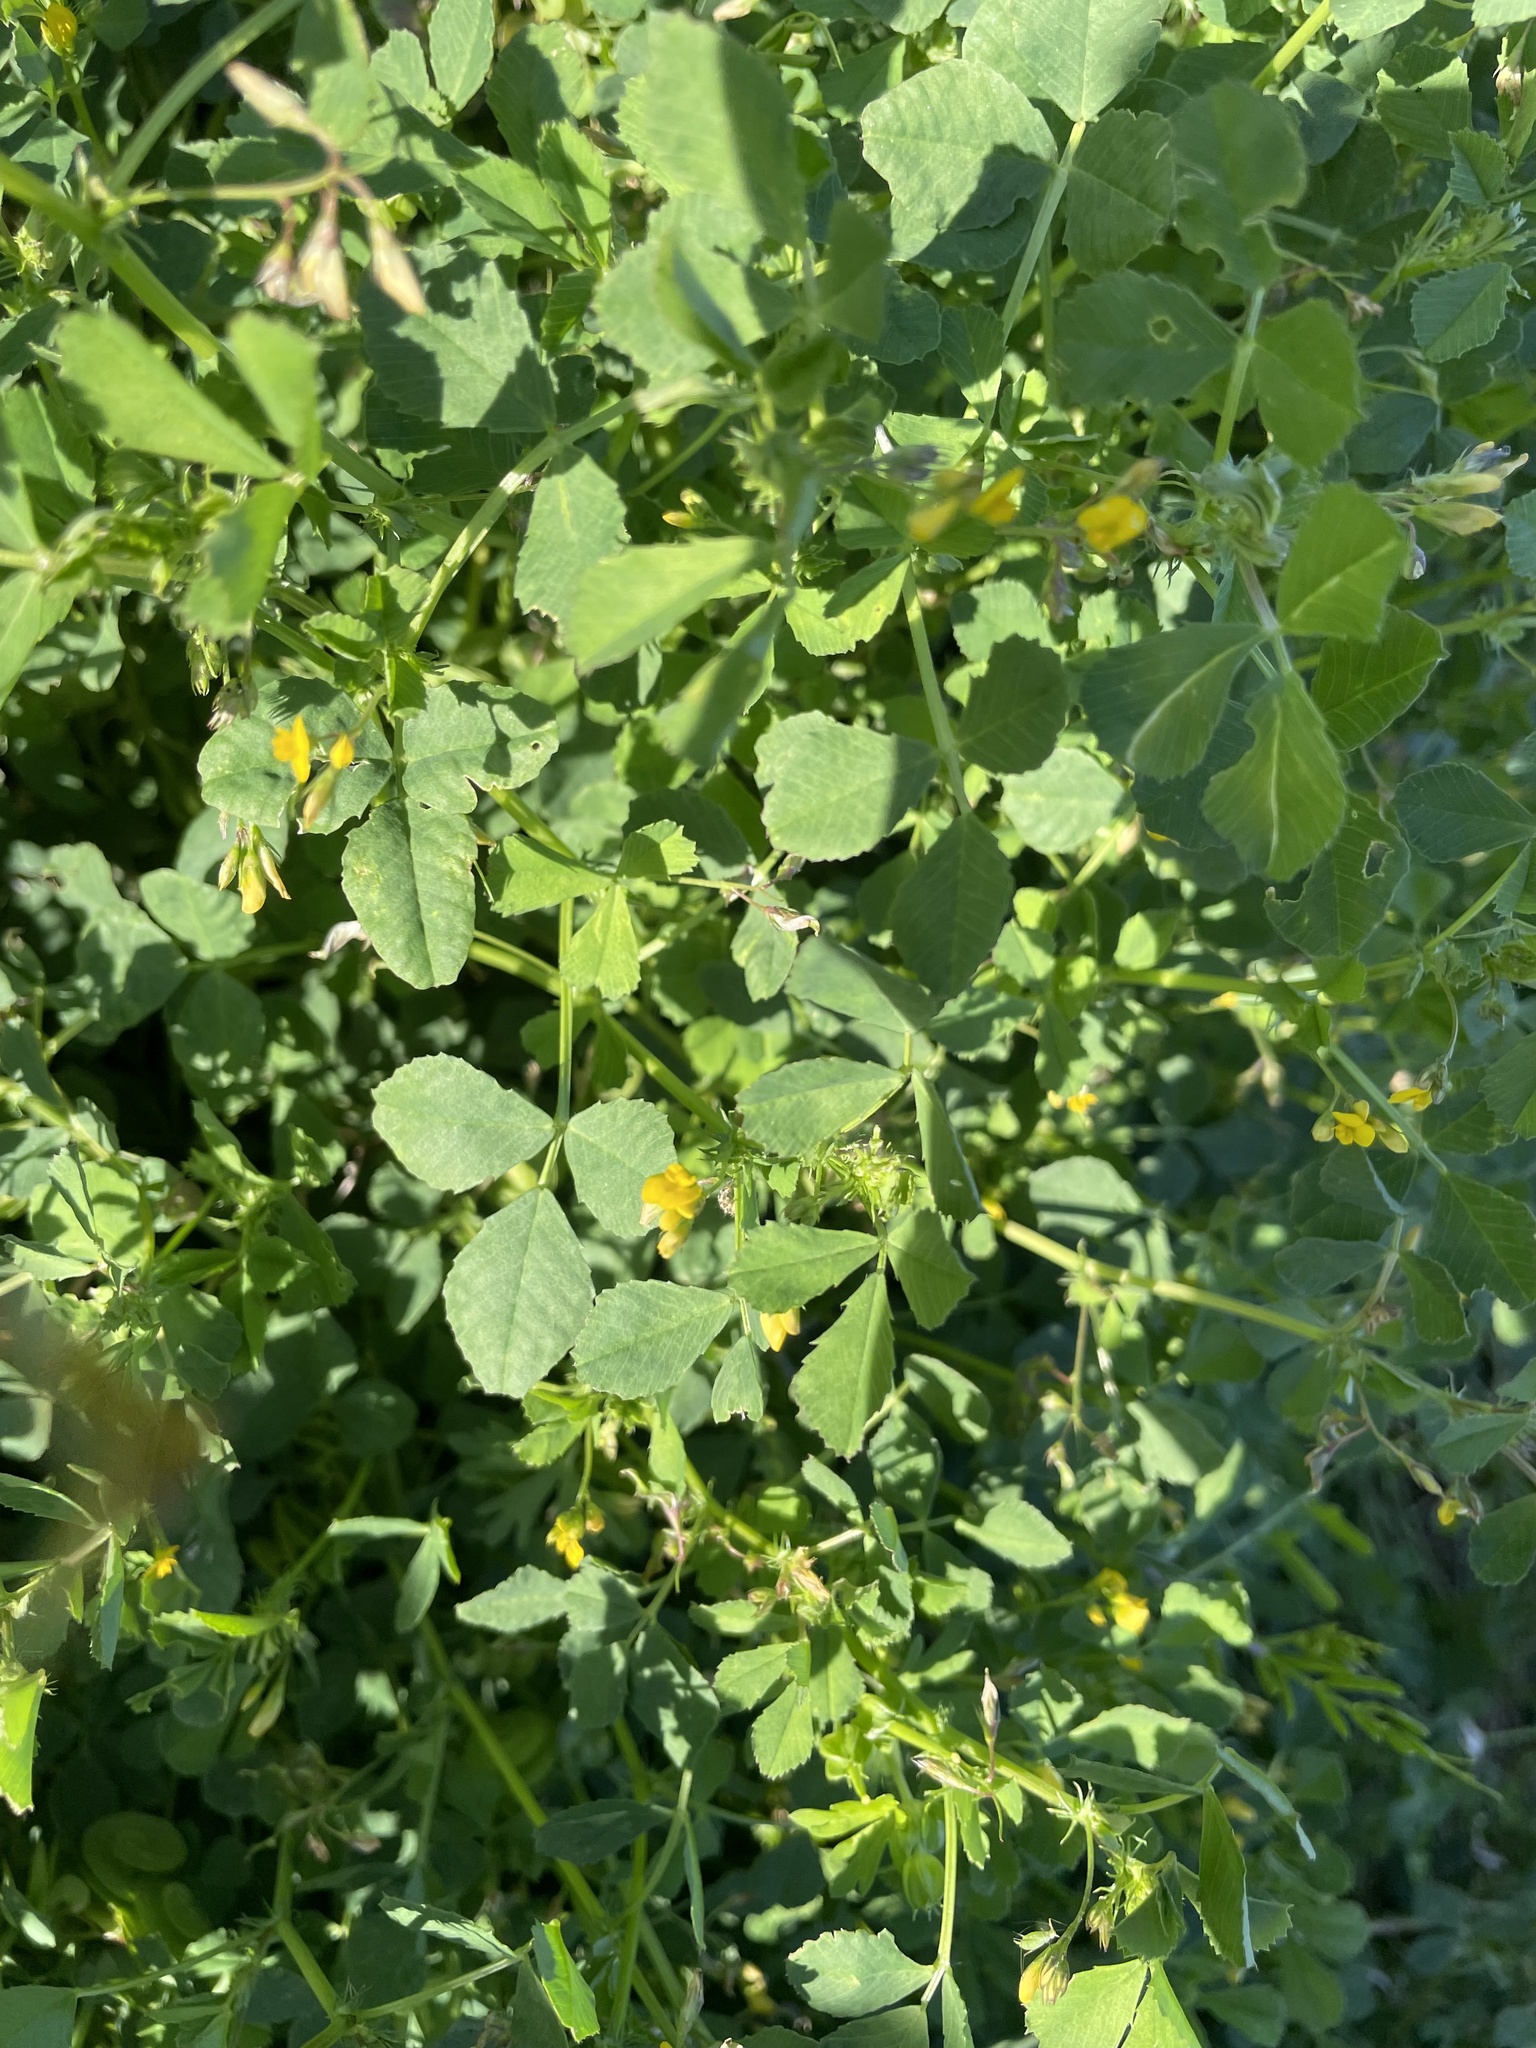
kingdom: Plantae
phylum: Tracheophyta
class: Magnoliopsida
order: Fabales
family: Fabaceae
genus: Medicago
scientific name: Medicago polymorpha
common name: Burclover
